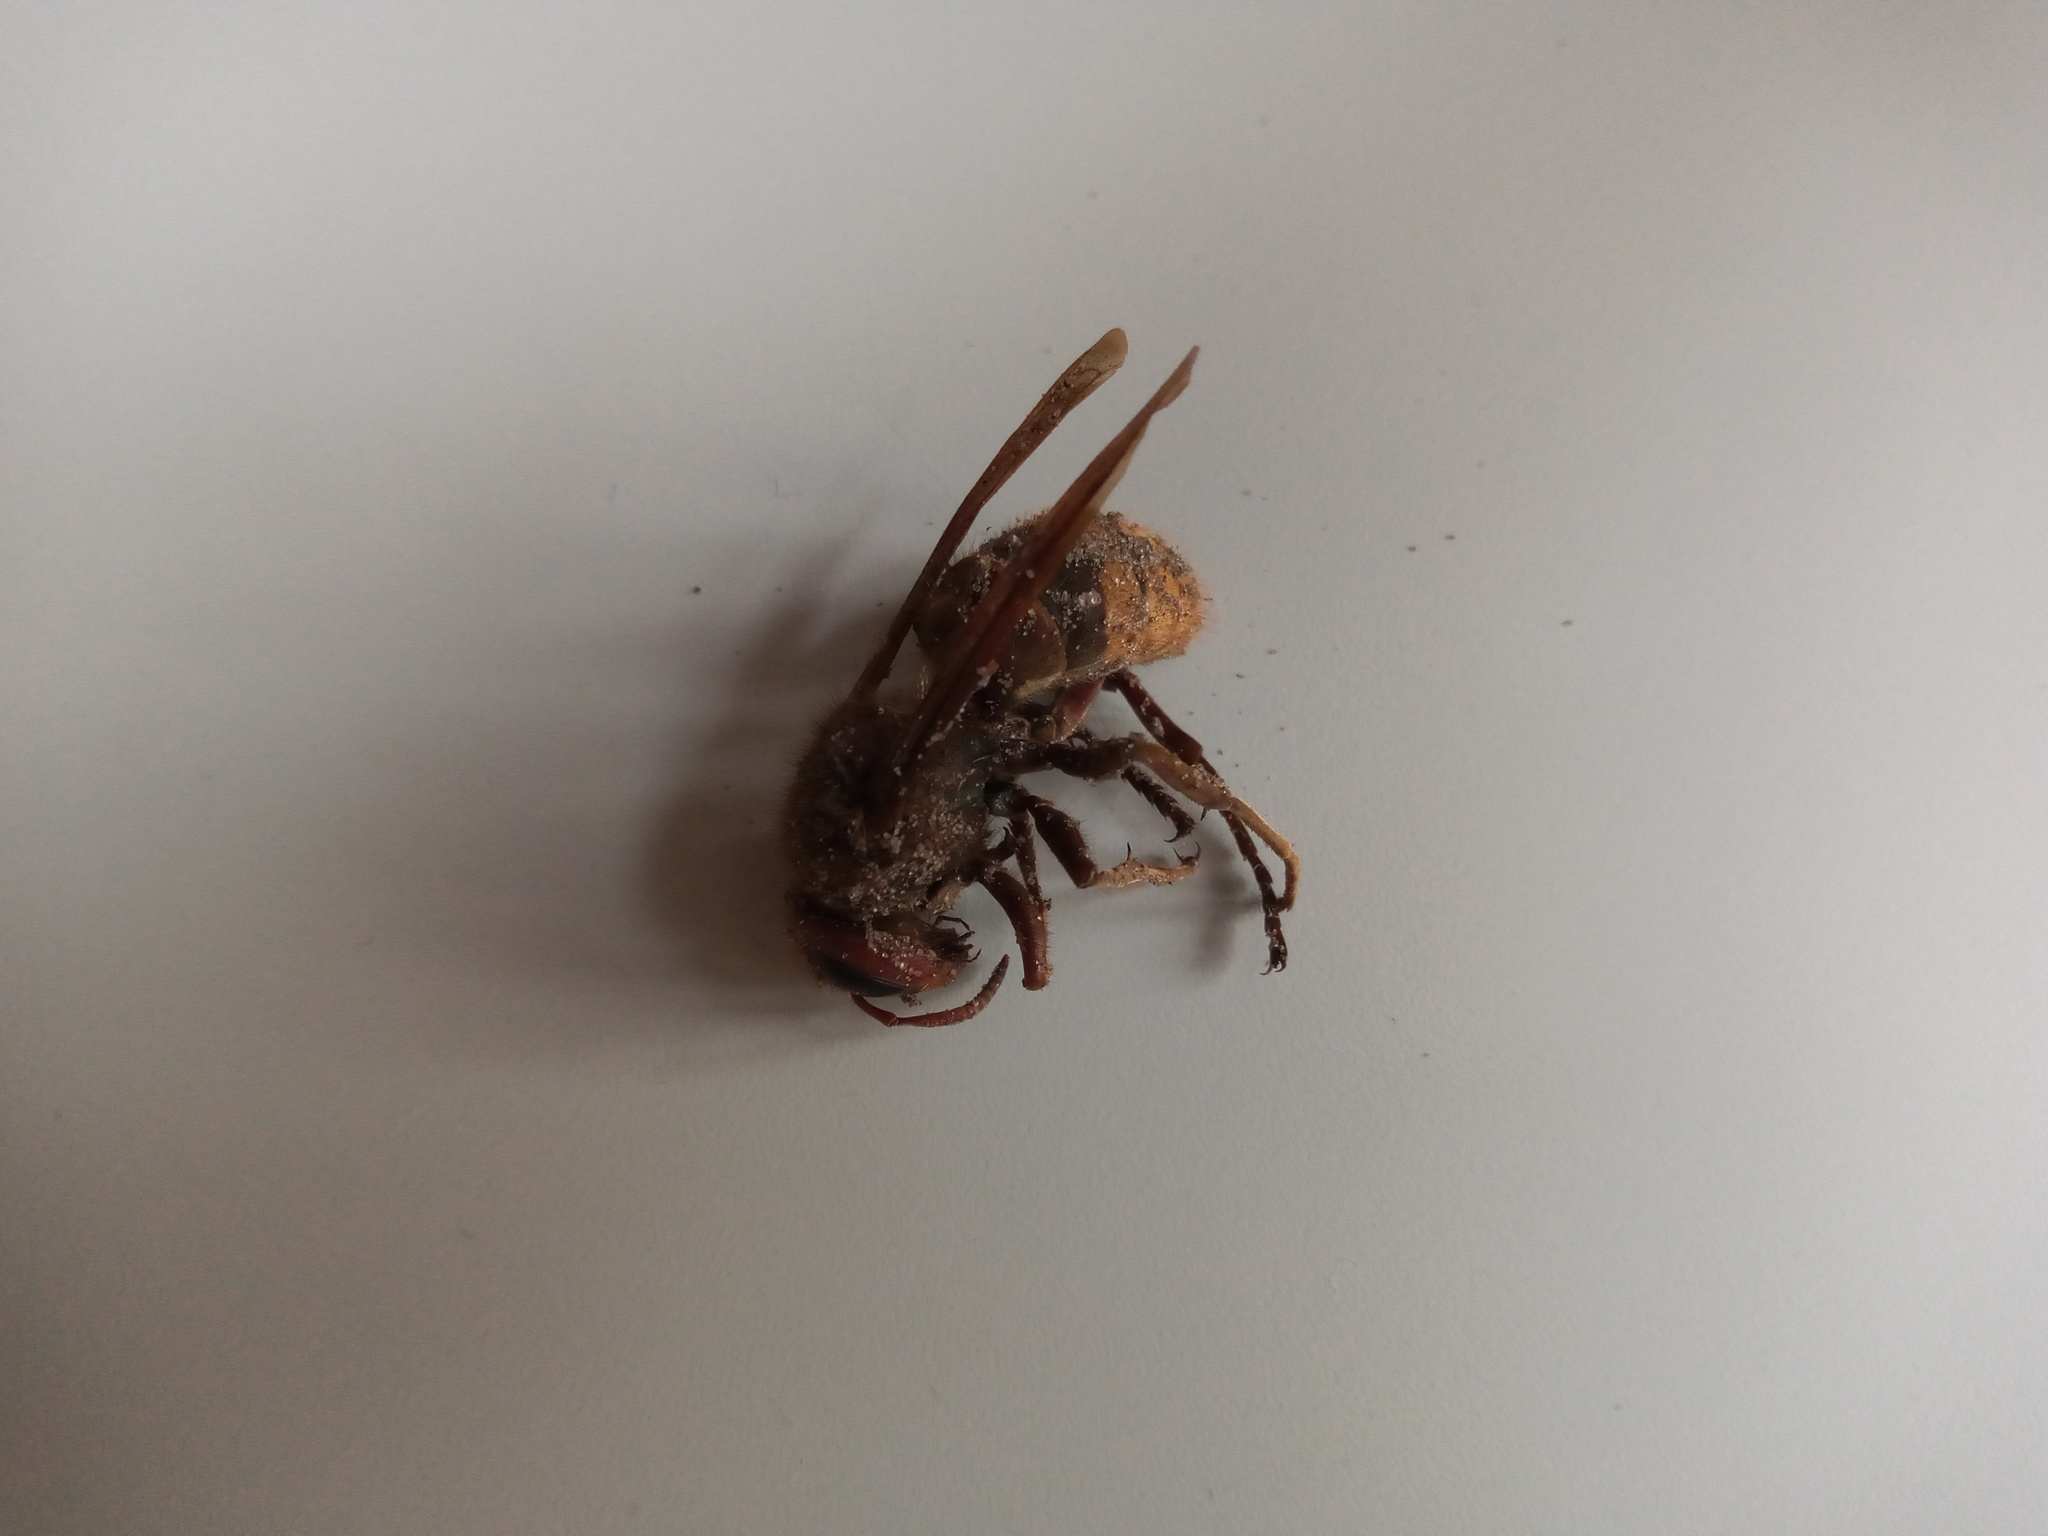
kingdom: Animalia
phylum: Arthropoda
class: Insecta
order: Hymenoptera
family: Vespidae
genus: Vespa
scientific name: Vespa crabro
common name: Hornet
